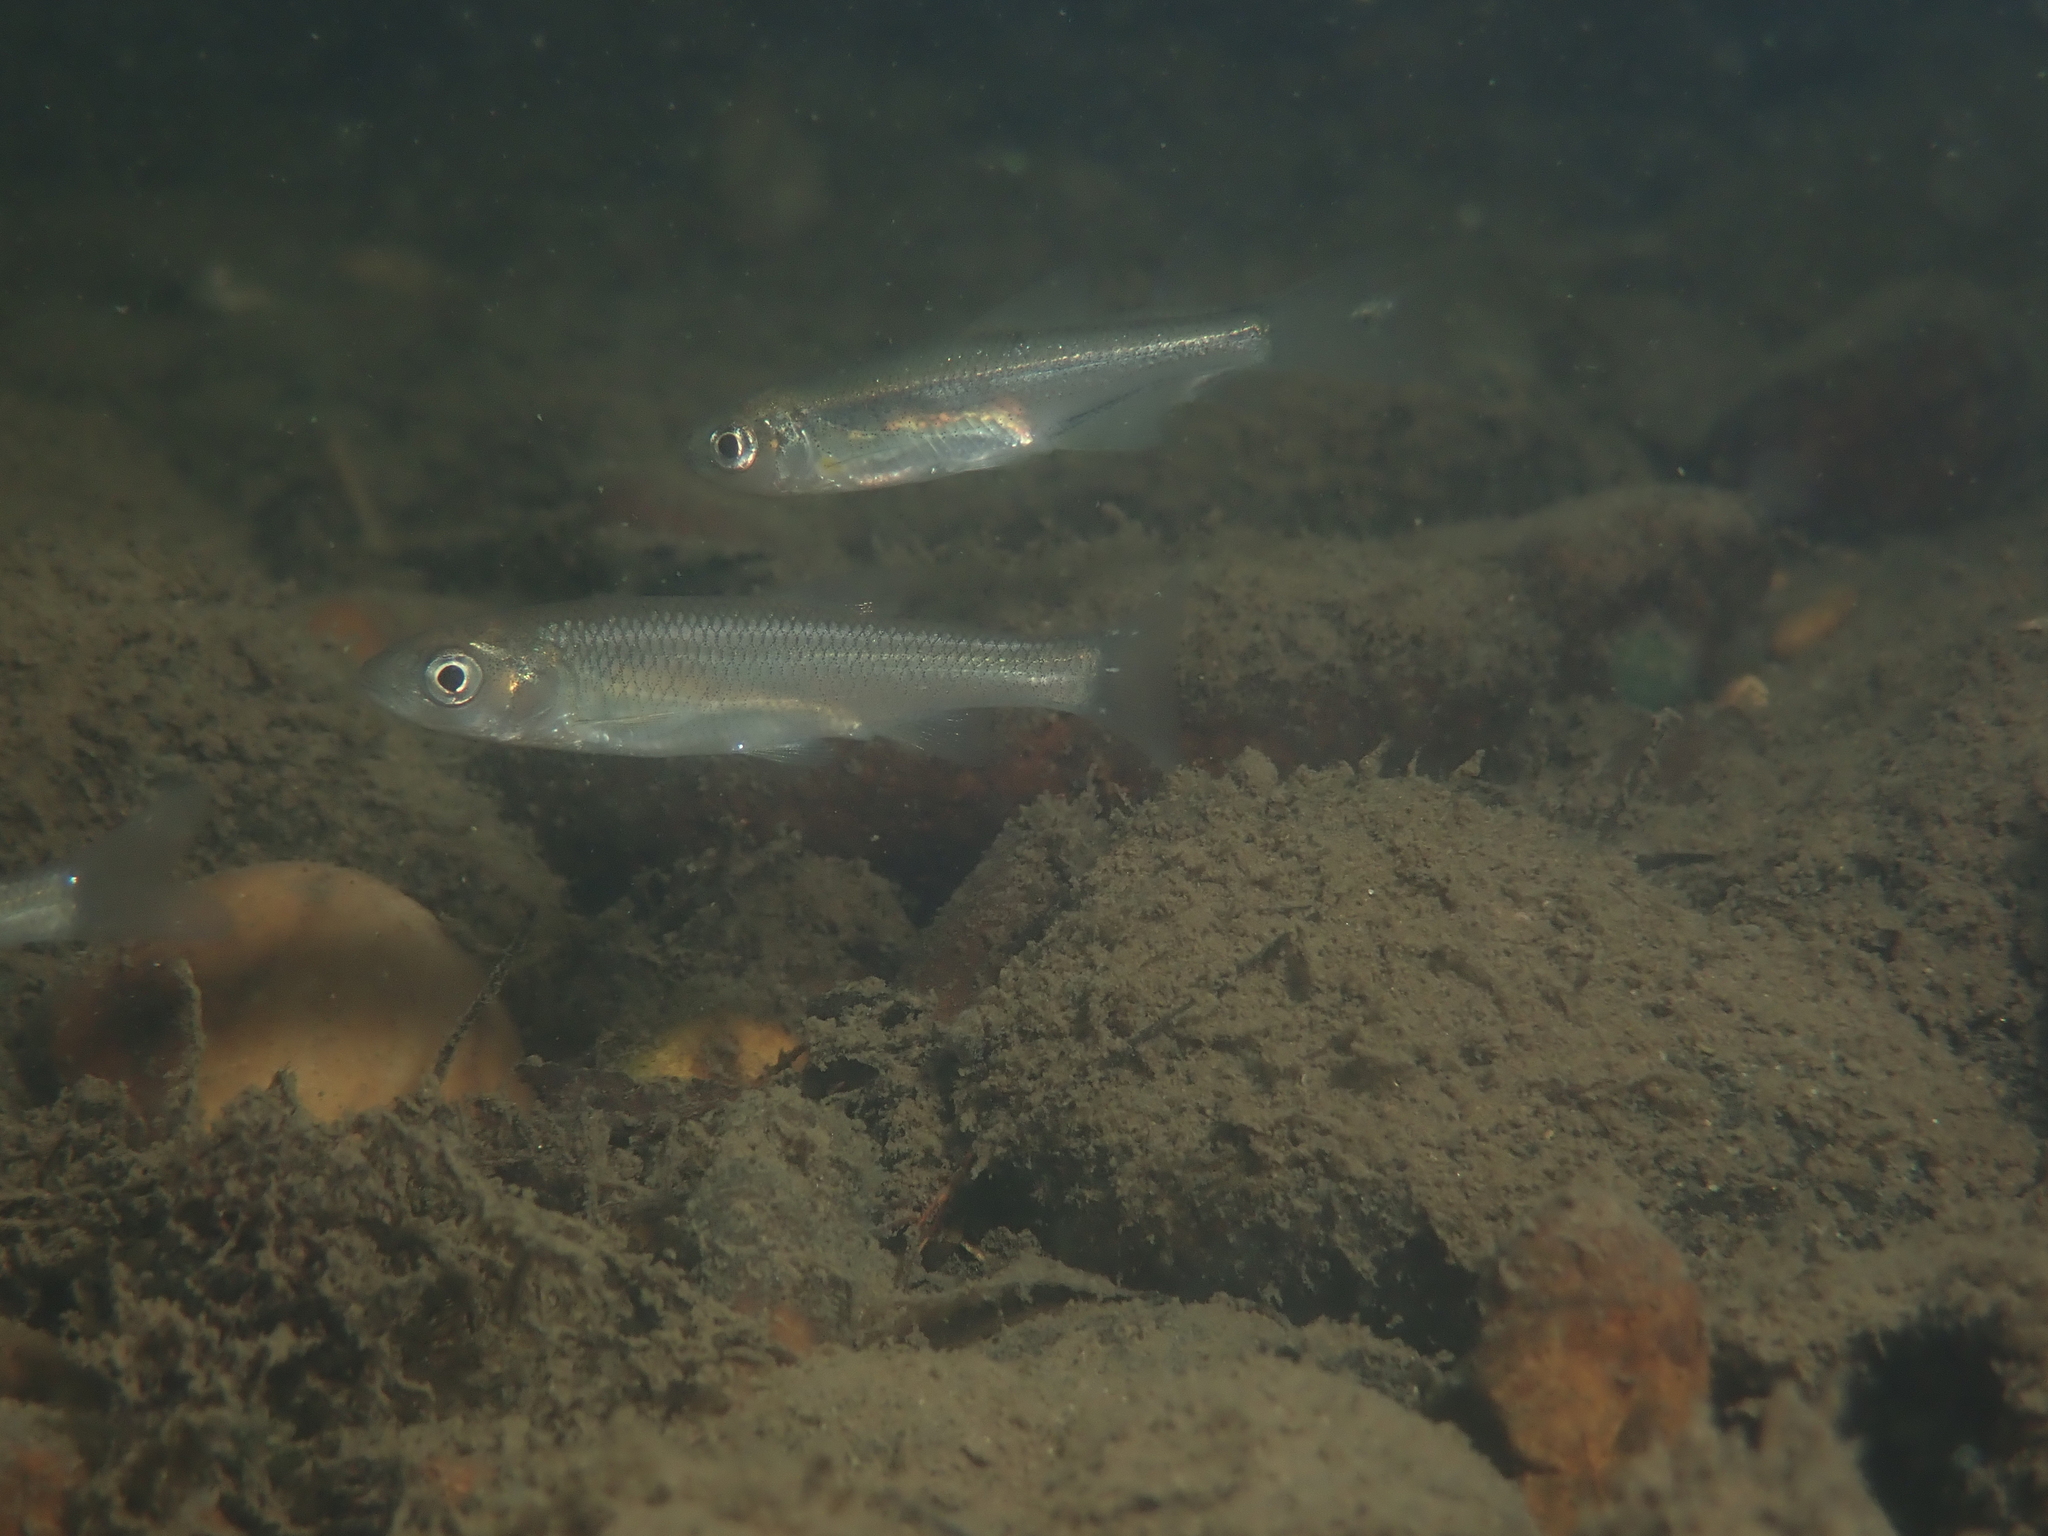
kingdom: Animalia
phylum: Chordata
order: Cypriniformes
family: Cyprinidae
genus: Leuciscus
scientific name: Leuciscus leuciscus
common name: Dace
